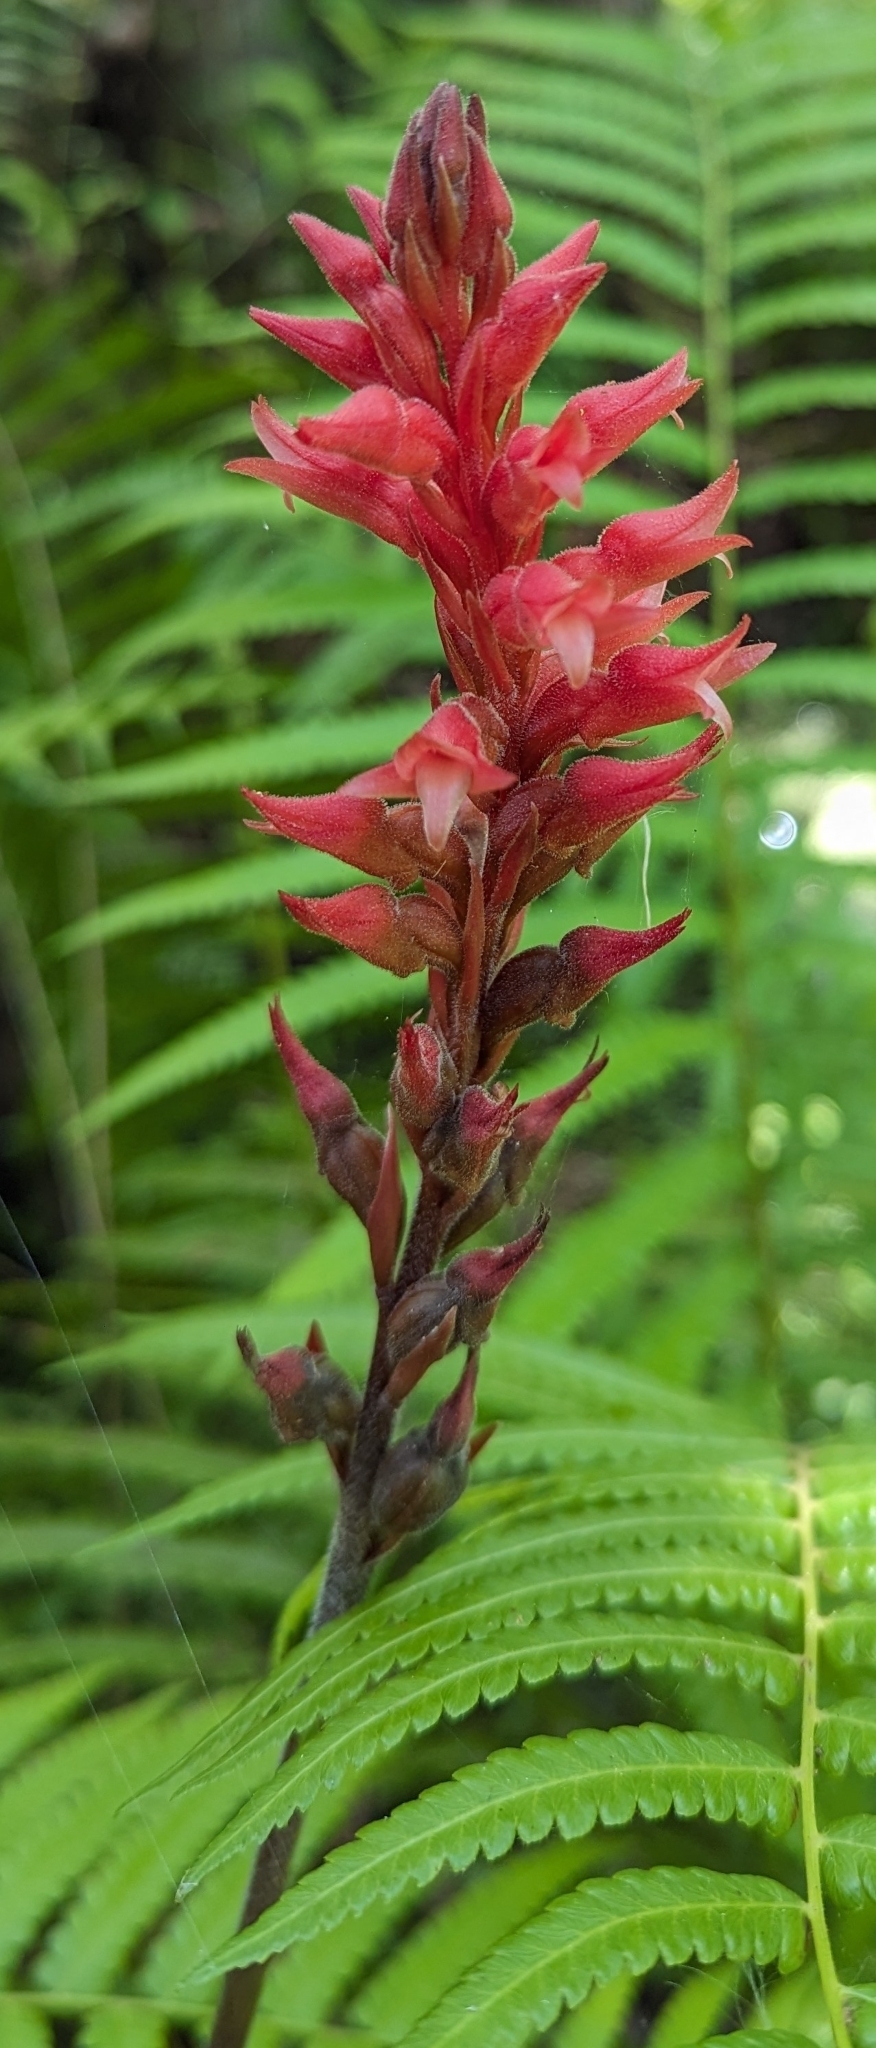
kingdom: Plantae
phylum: Tracheophyta
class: Liliopsida
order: Asparagales
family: Orchidaceae
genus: Sacoila
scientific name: Sacoila lanceolata
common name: Leafless beaked ladiestresses
